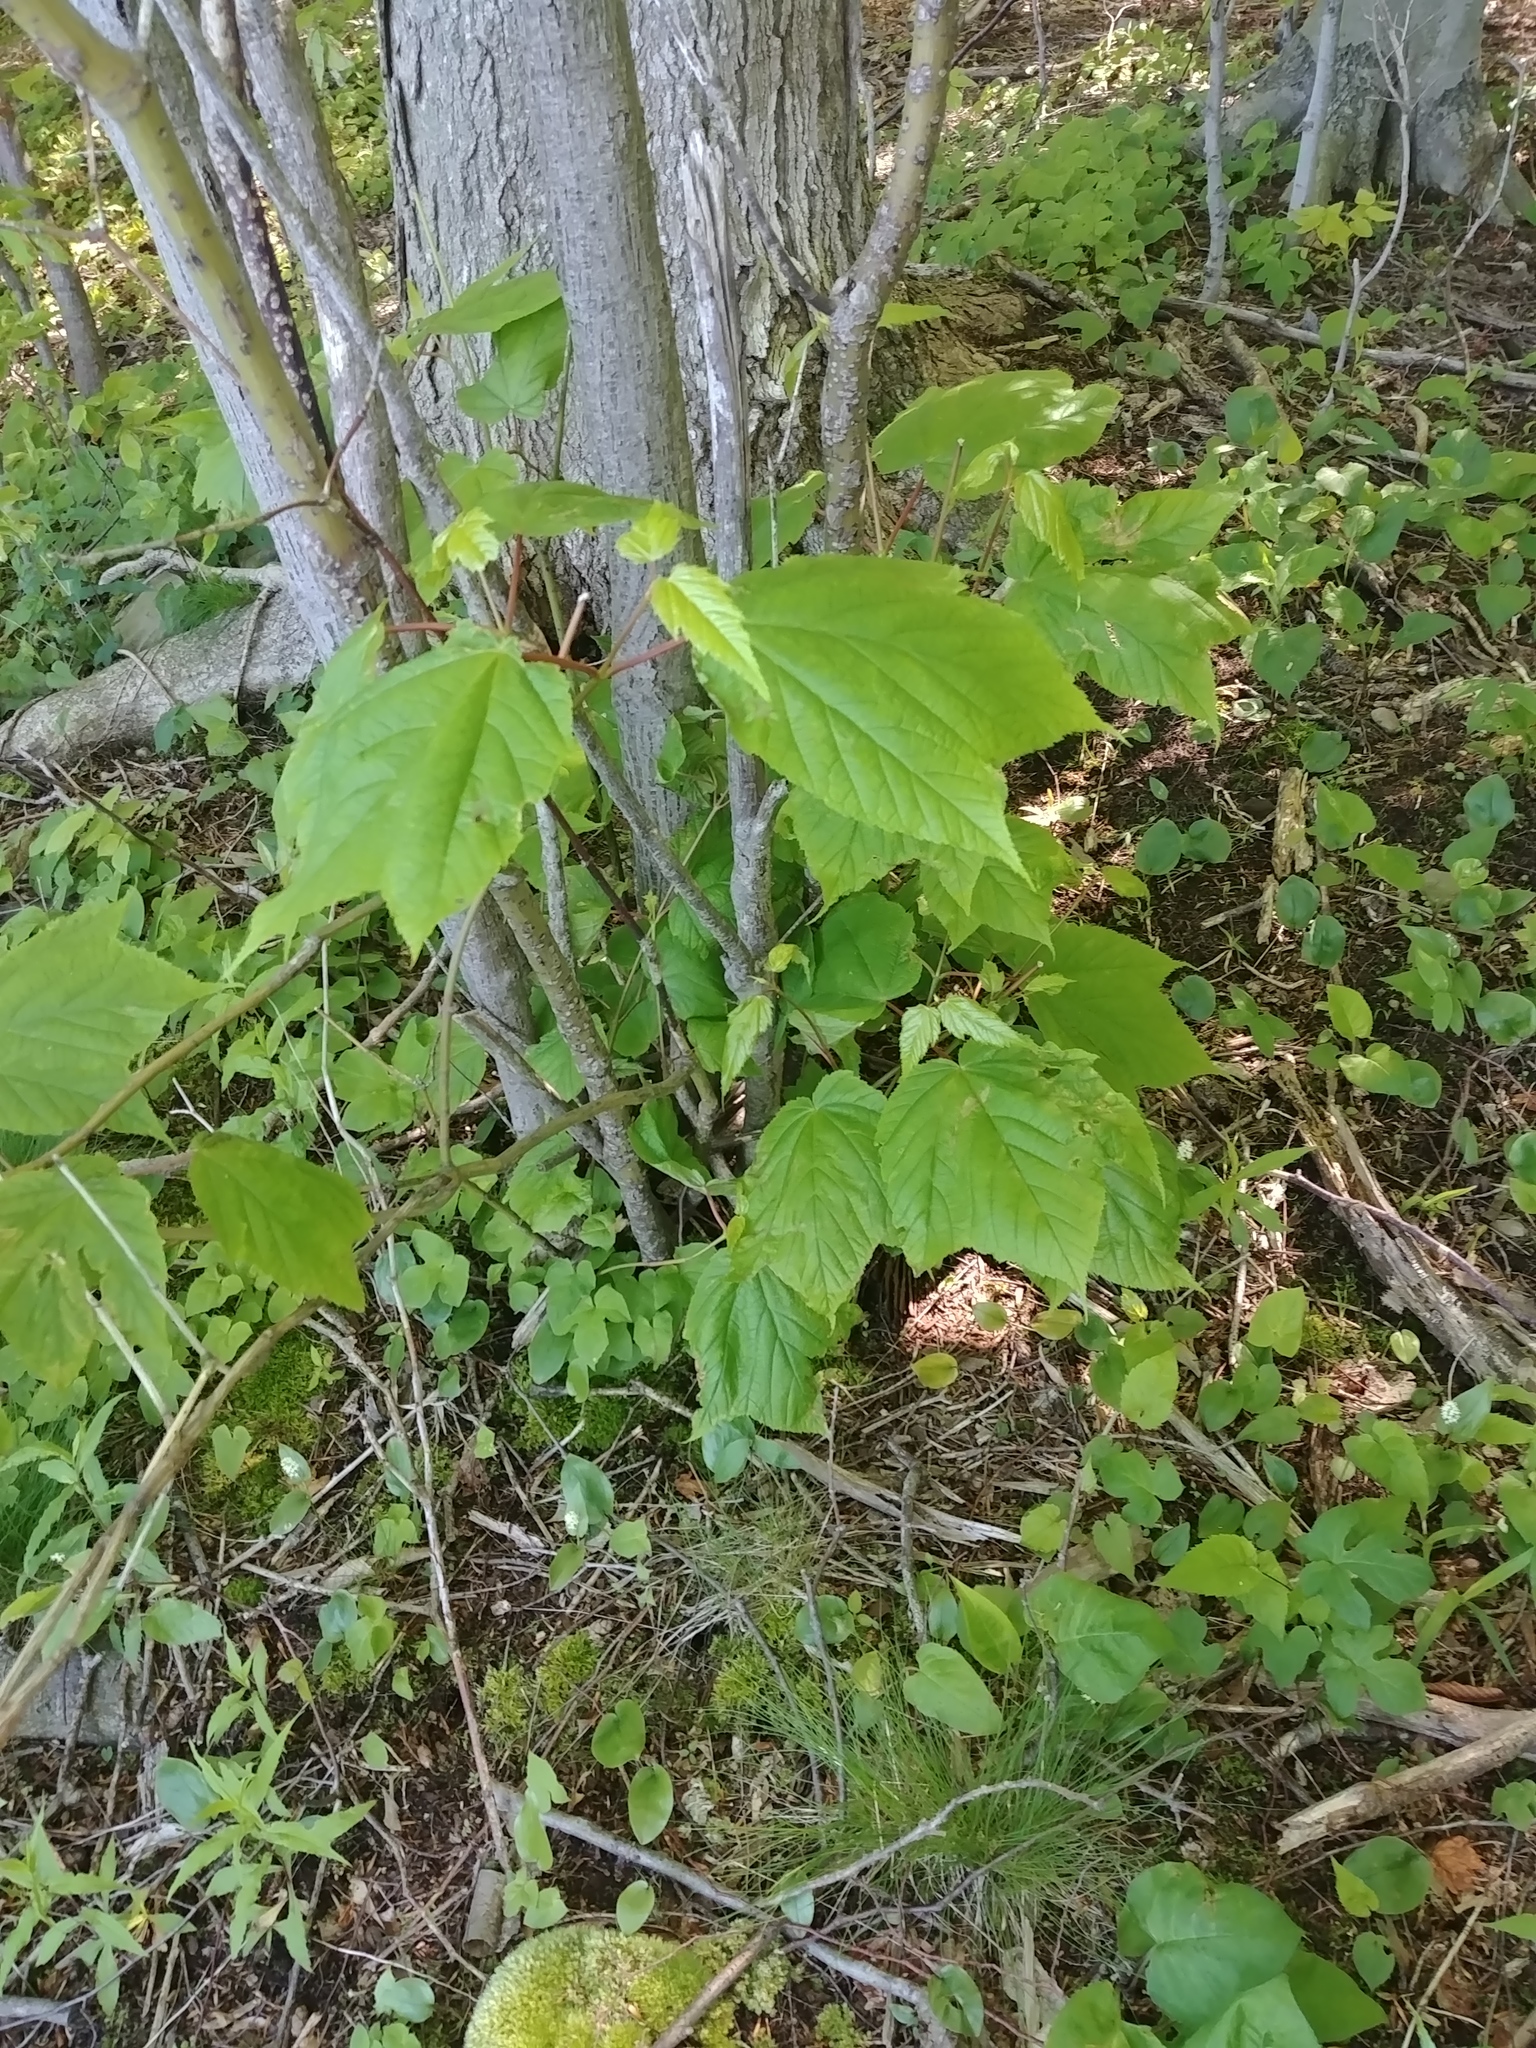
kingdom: Plantae
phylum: Tracheophyta
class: Magnoliopsida
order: Sapindales
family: Sapindaceae
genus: Acer
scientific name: Acer pensylvanicum
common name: Moosewood
